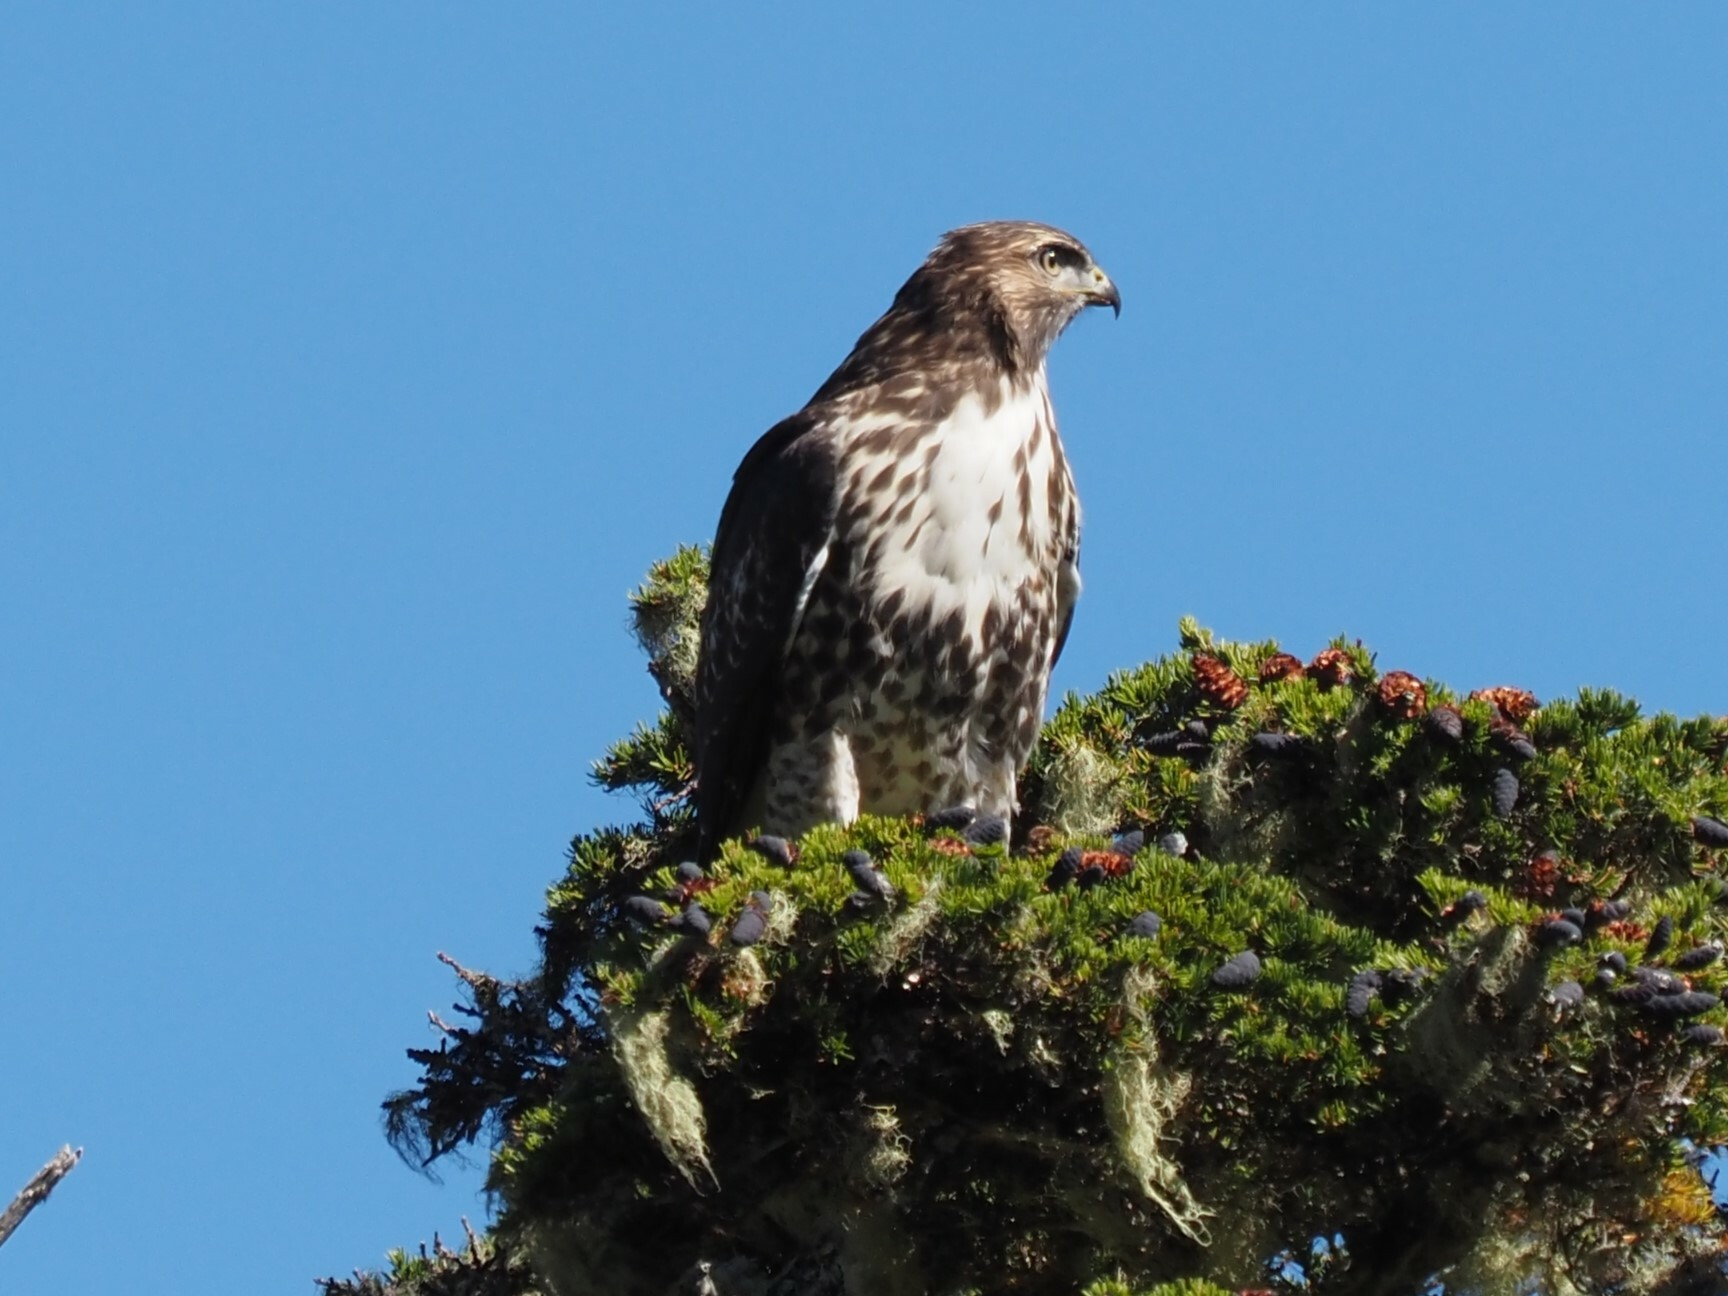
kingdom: Animalia
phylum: Chordata
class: Aves
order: Accipitriformes
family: Accipitridae
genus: Buteo
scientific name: Buteo jamaicensis
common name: Red-tailed hawk
